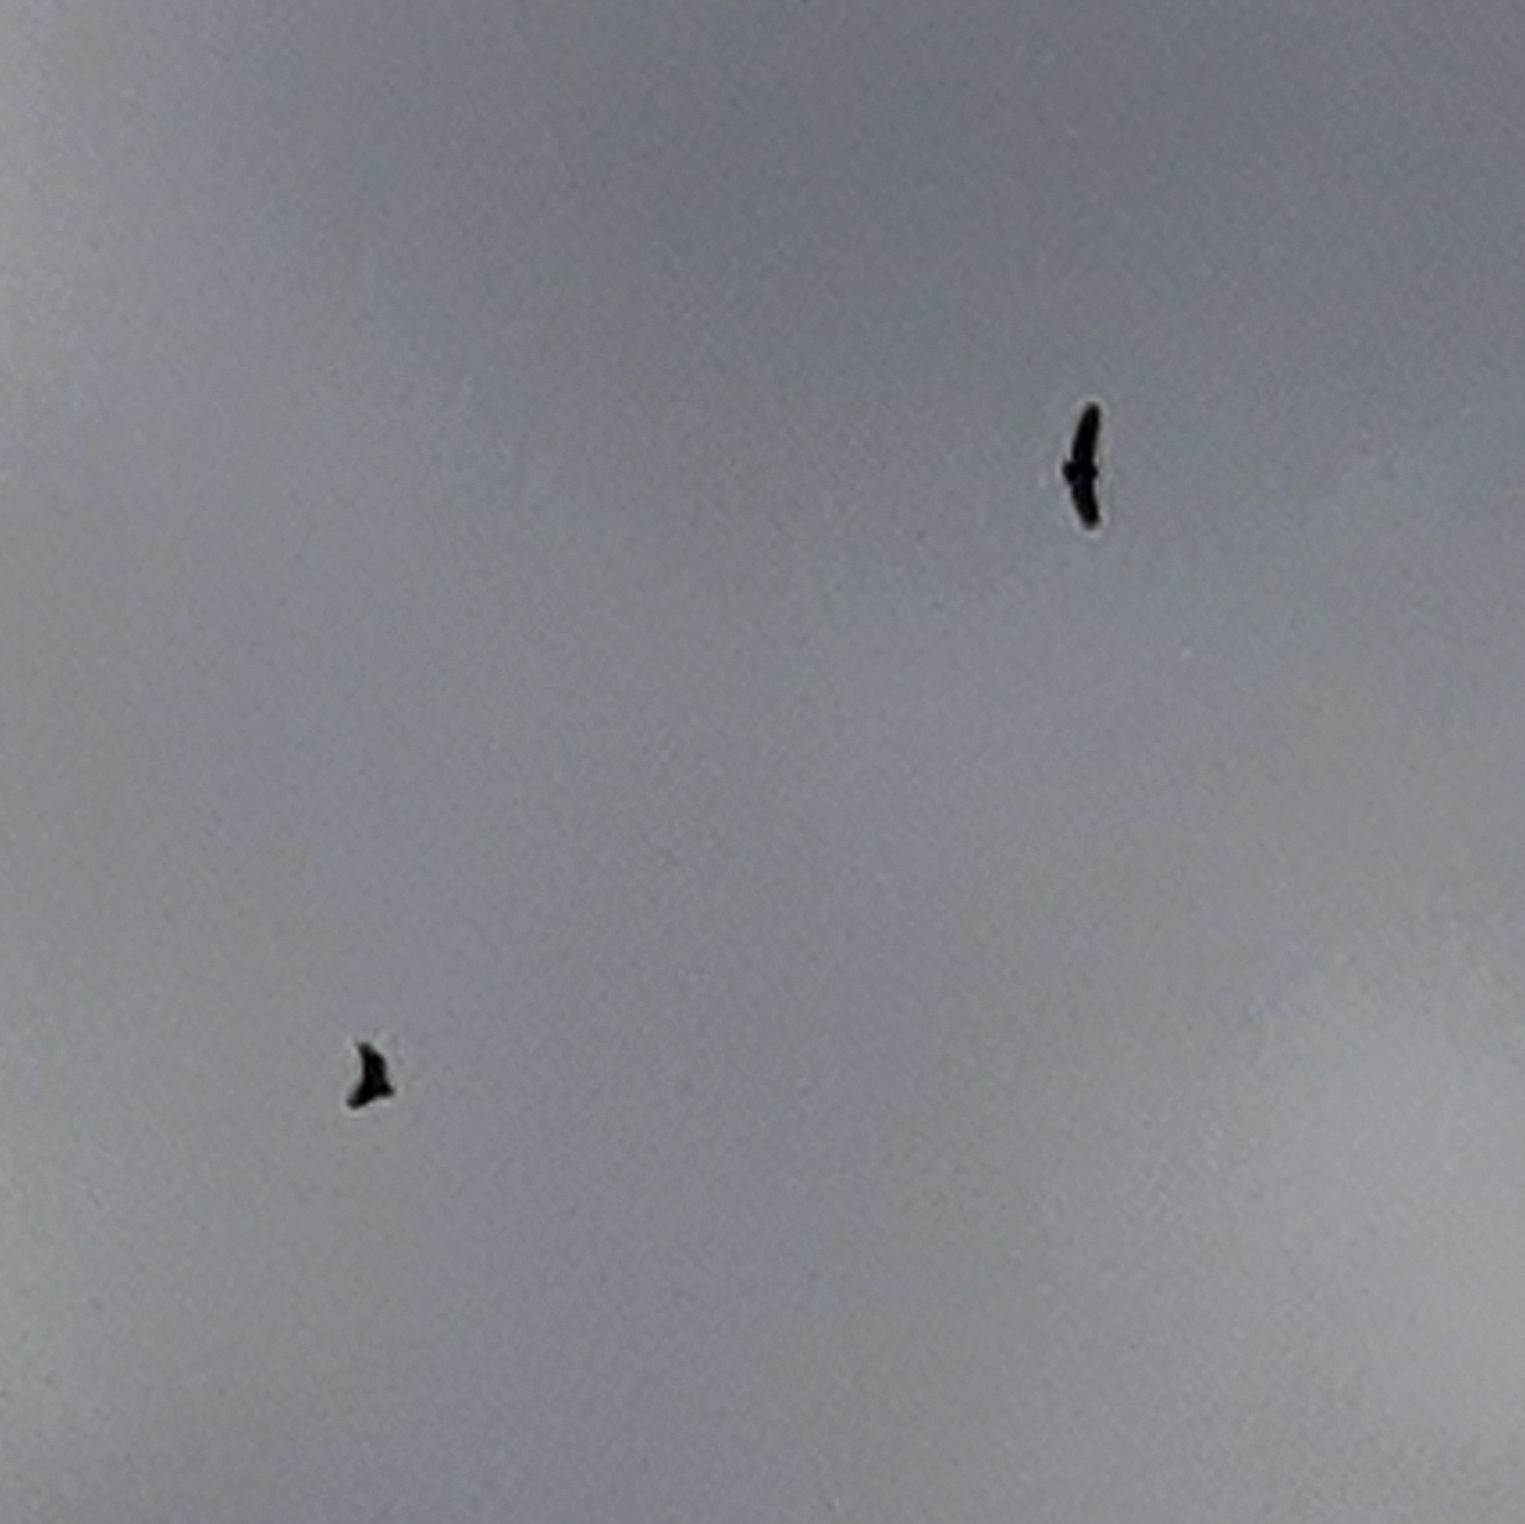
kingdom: Animalia
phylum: Chordata
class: Aves
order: Accipitriformes
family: Accipitridae
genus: Gyps
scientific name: Gyps fulvus
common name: Griffon vulture
